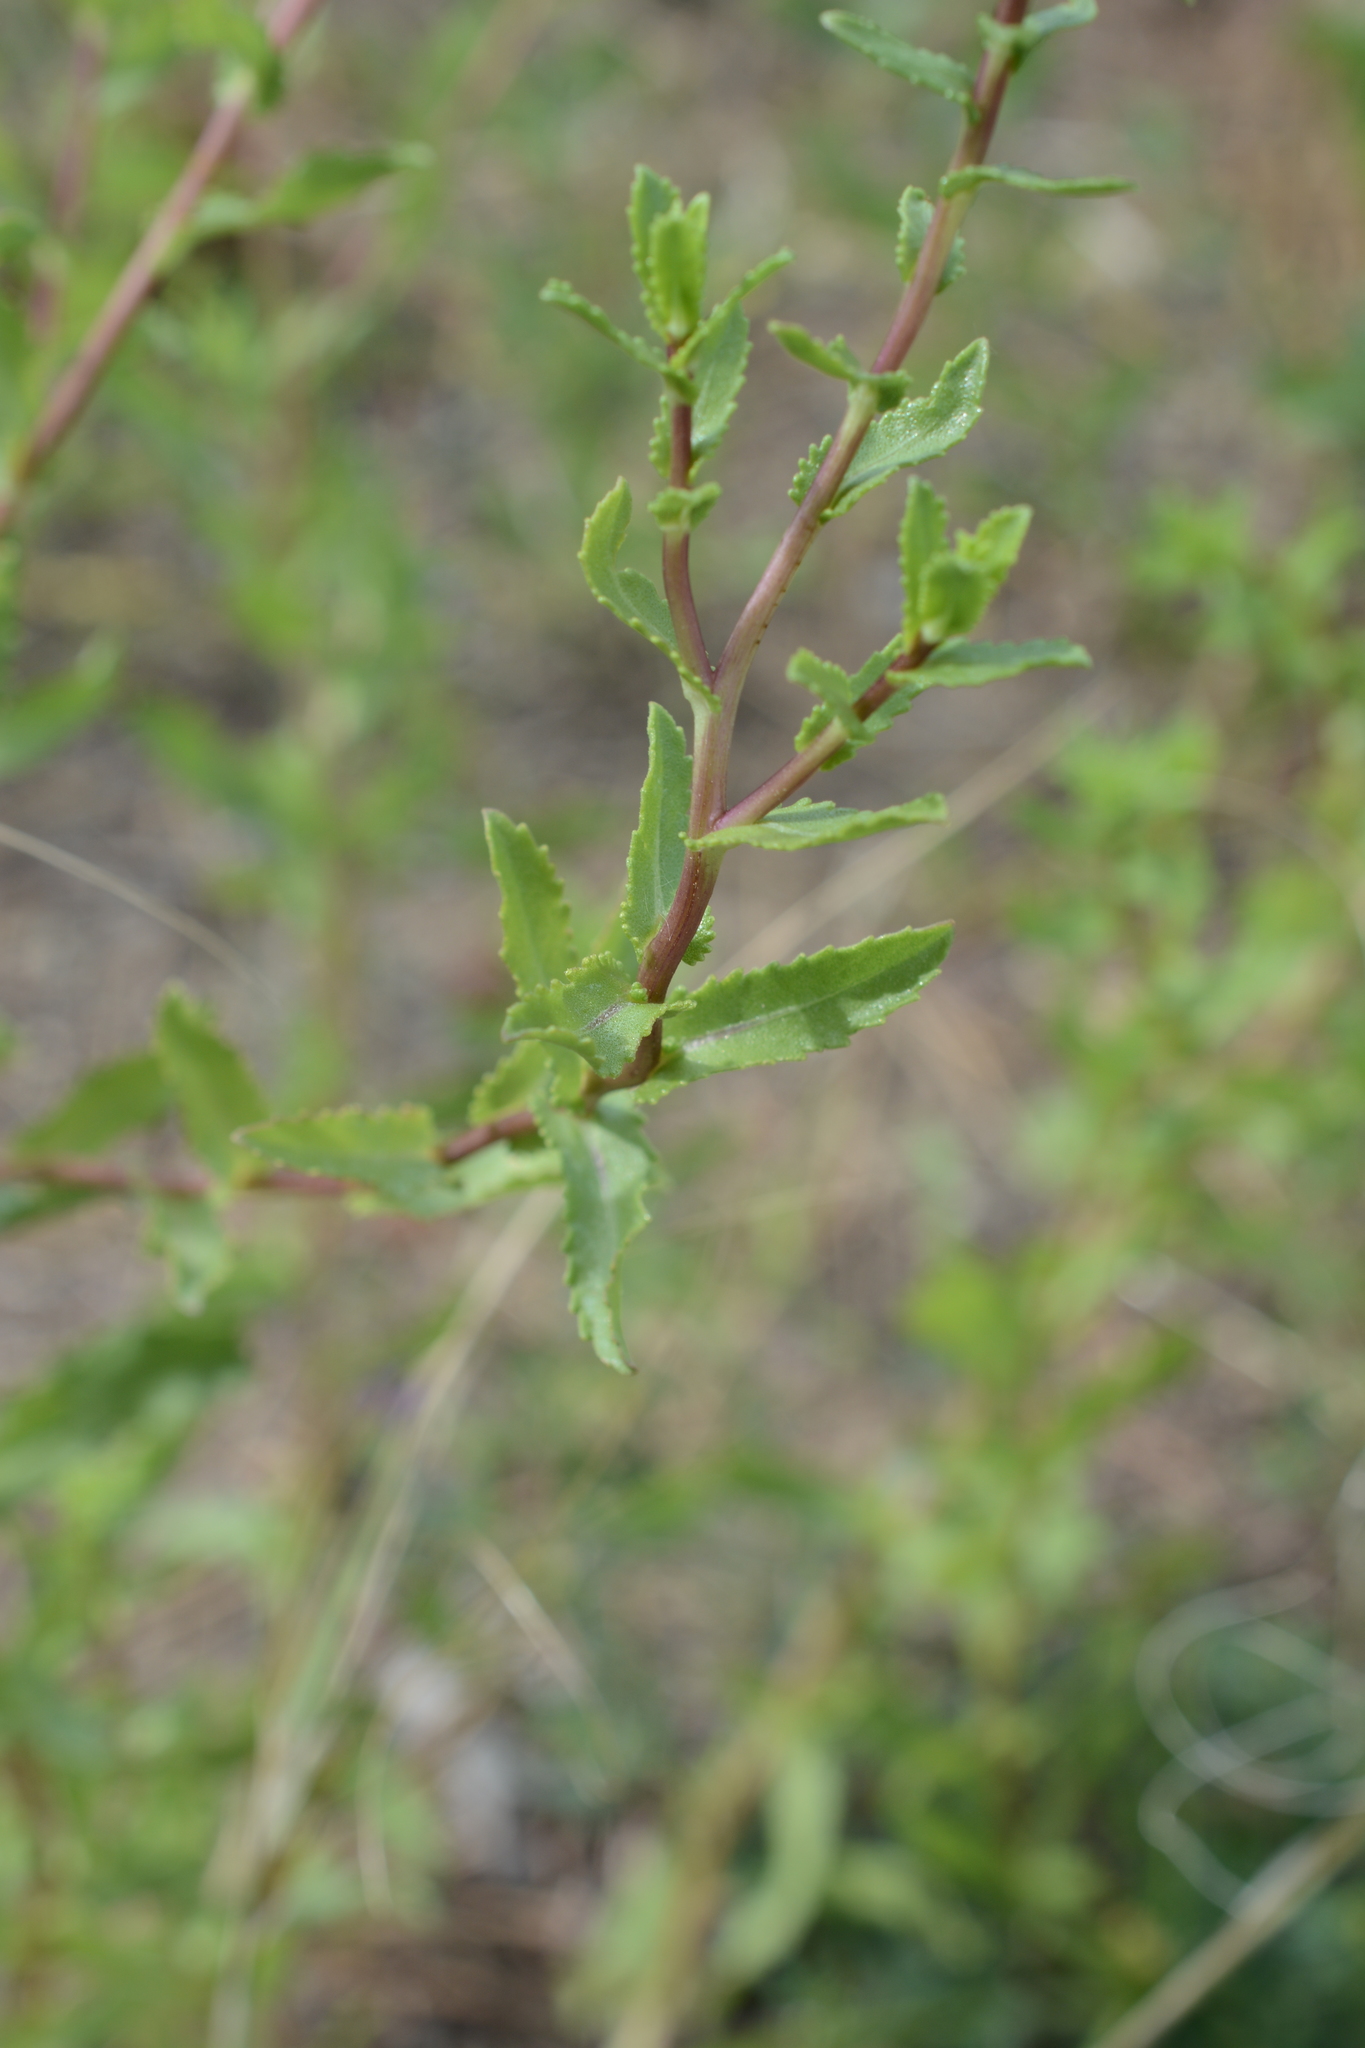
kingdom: Plantae
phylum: Tracheophyta
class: Magnoliopsida
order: Asterales
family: Asteraceae
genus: Grindelia
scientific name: Grindelia squarrosa
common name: Curly-cup gumweed
